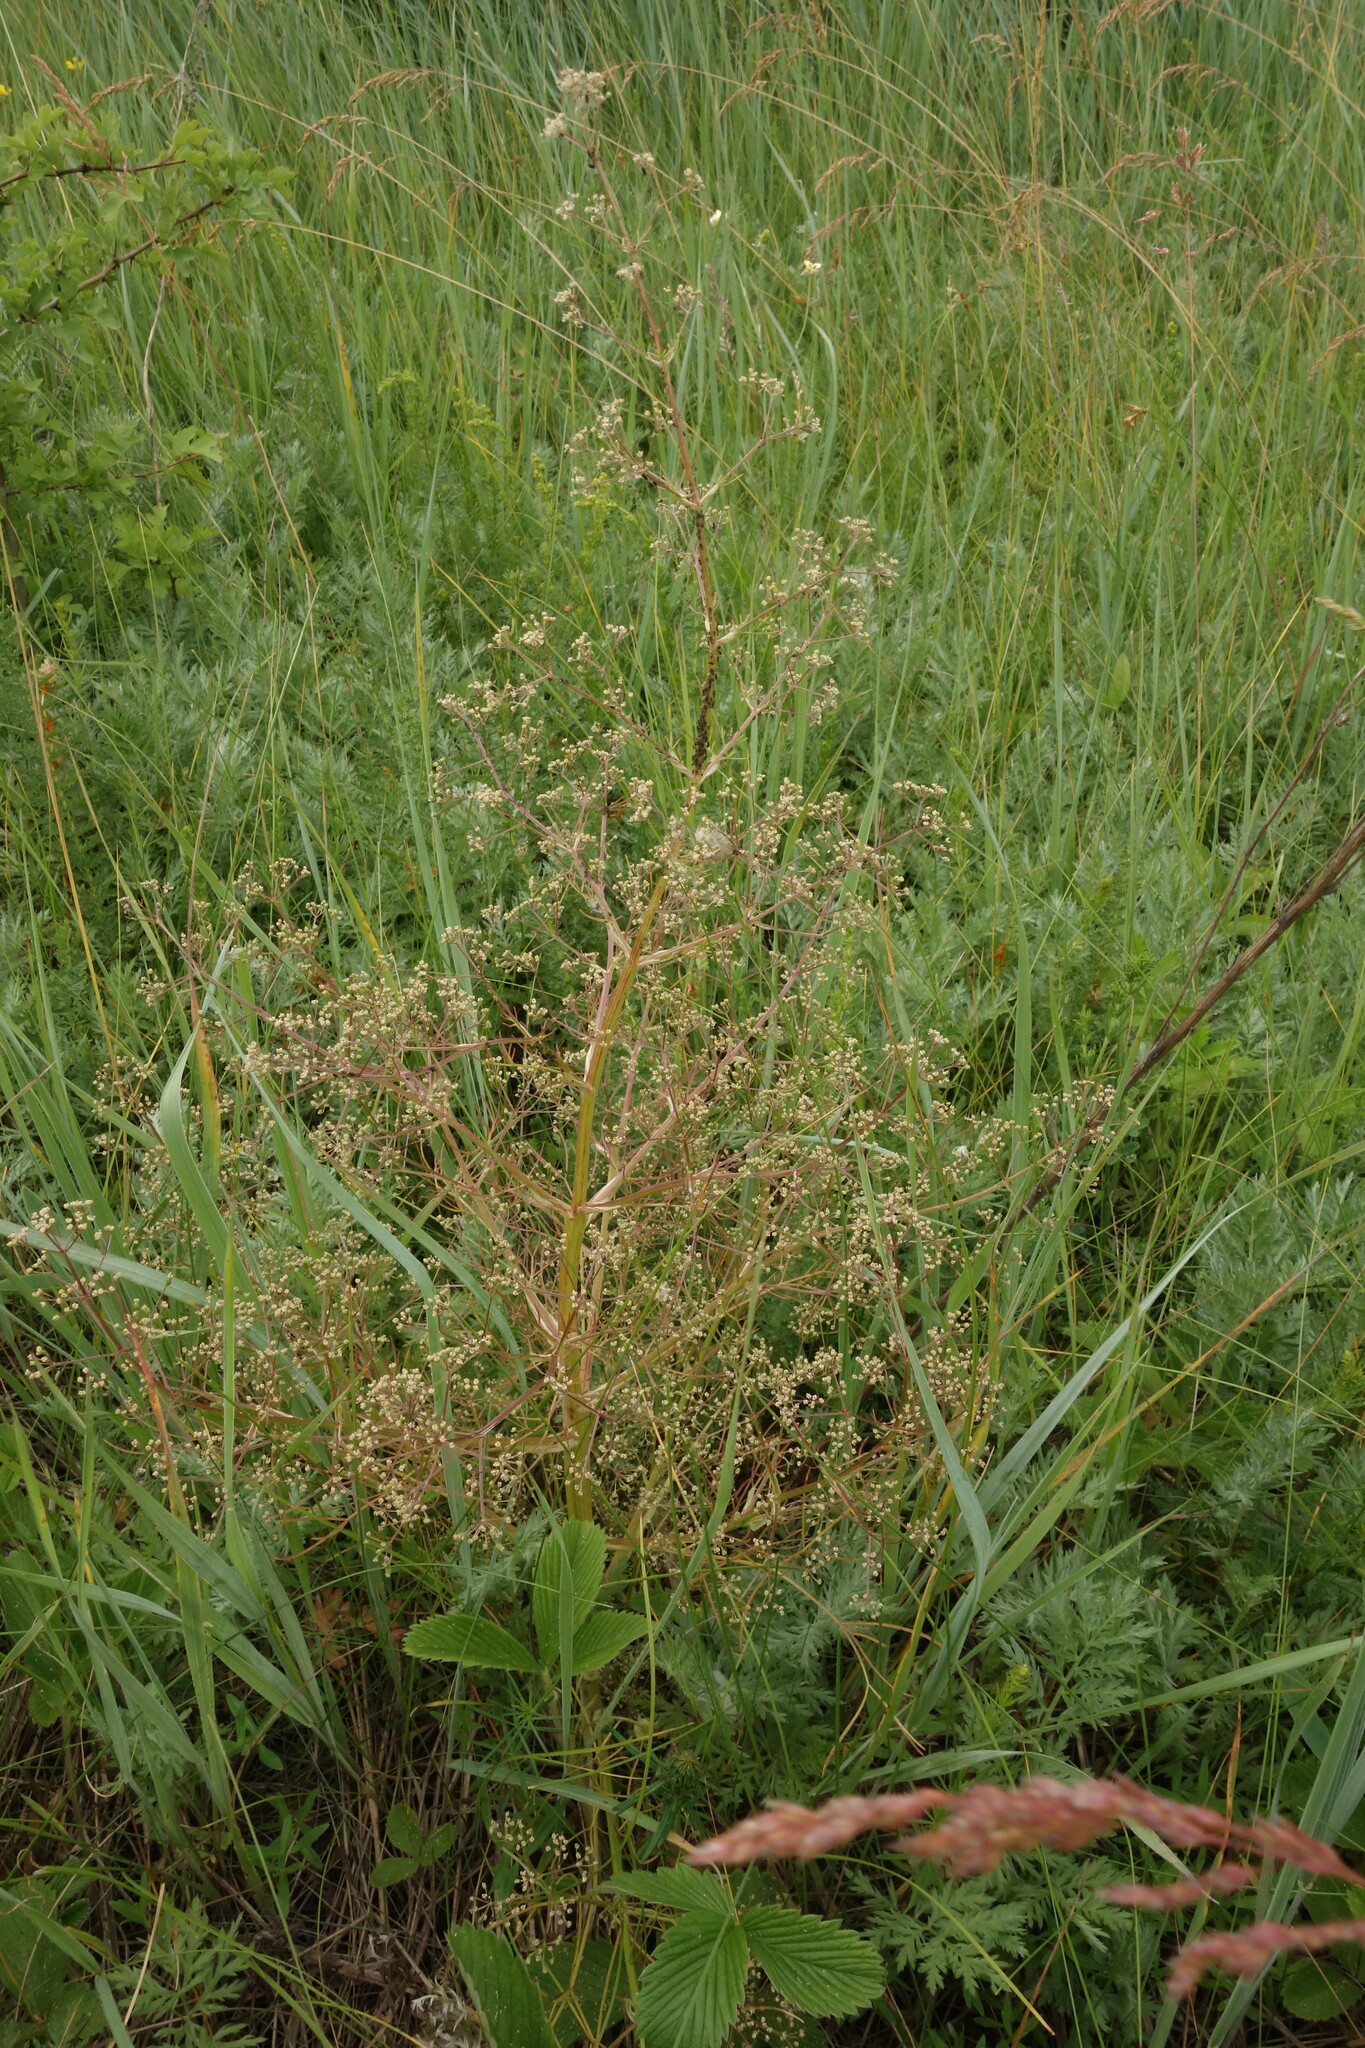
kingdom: Plantae
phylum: Tracheophyta
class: Magnoliopsida
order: Apiales
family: Apiaceae
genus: Trinia
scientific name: Trinia multicaulis
